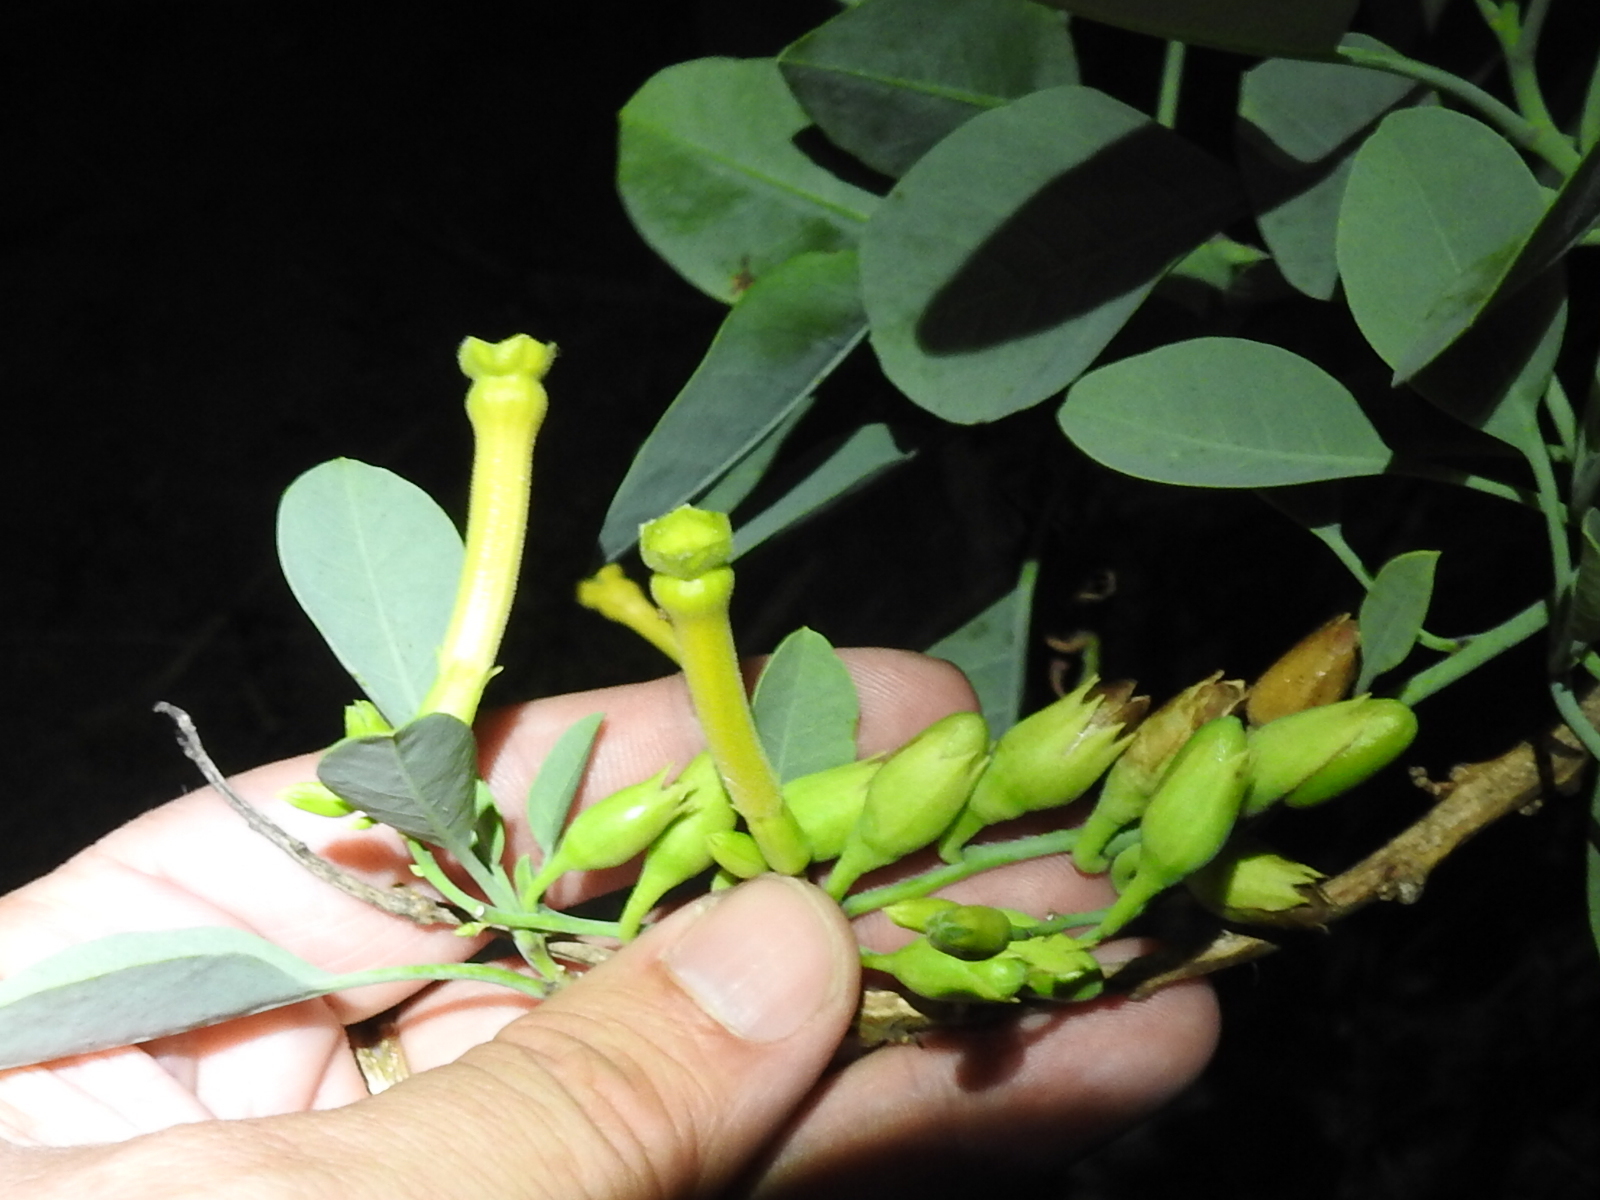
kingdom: Plantae
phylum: Tracheophyta
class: Magnoliopsida
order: Solanales
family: Solanaceae
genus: Nicotiana
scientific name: Nicotiana glauca
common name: Tree tobacco
